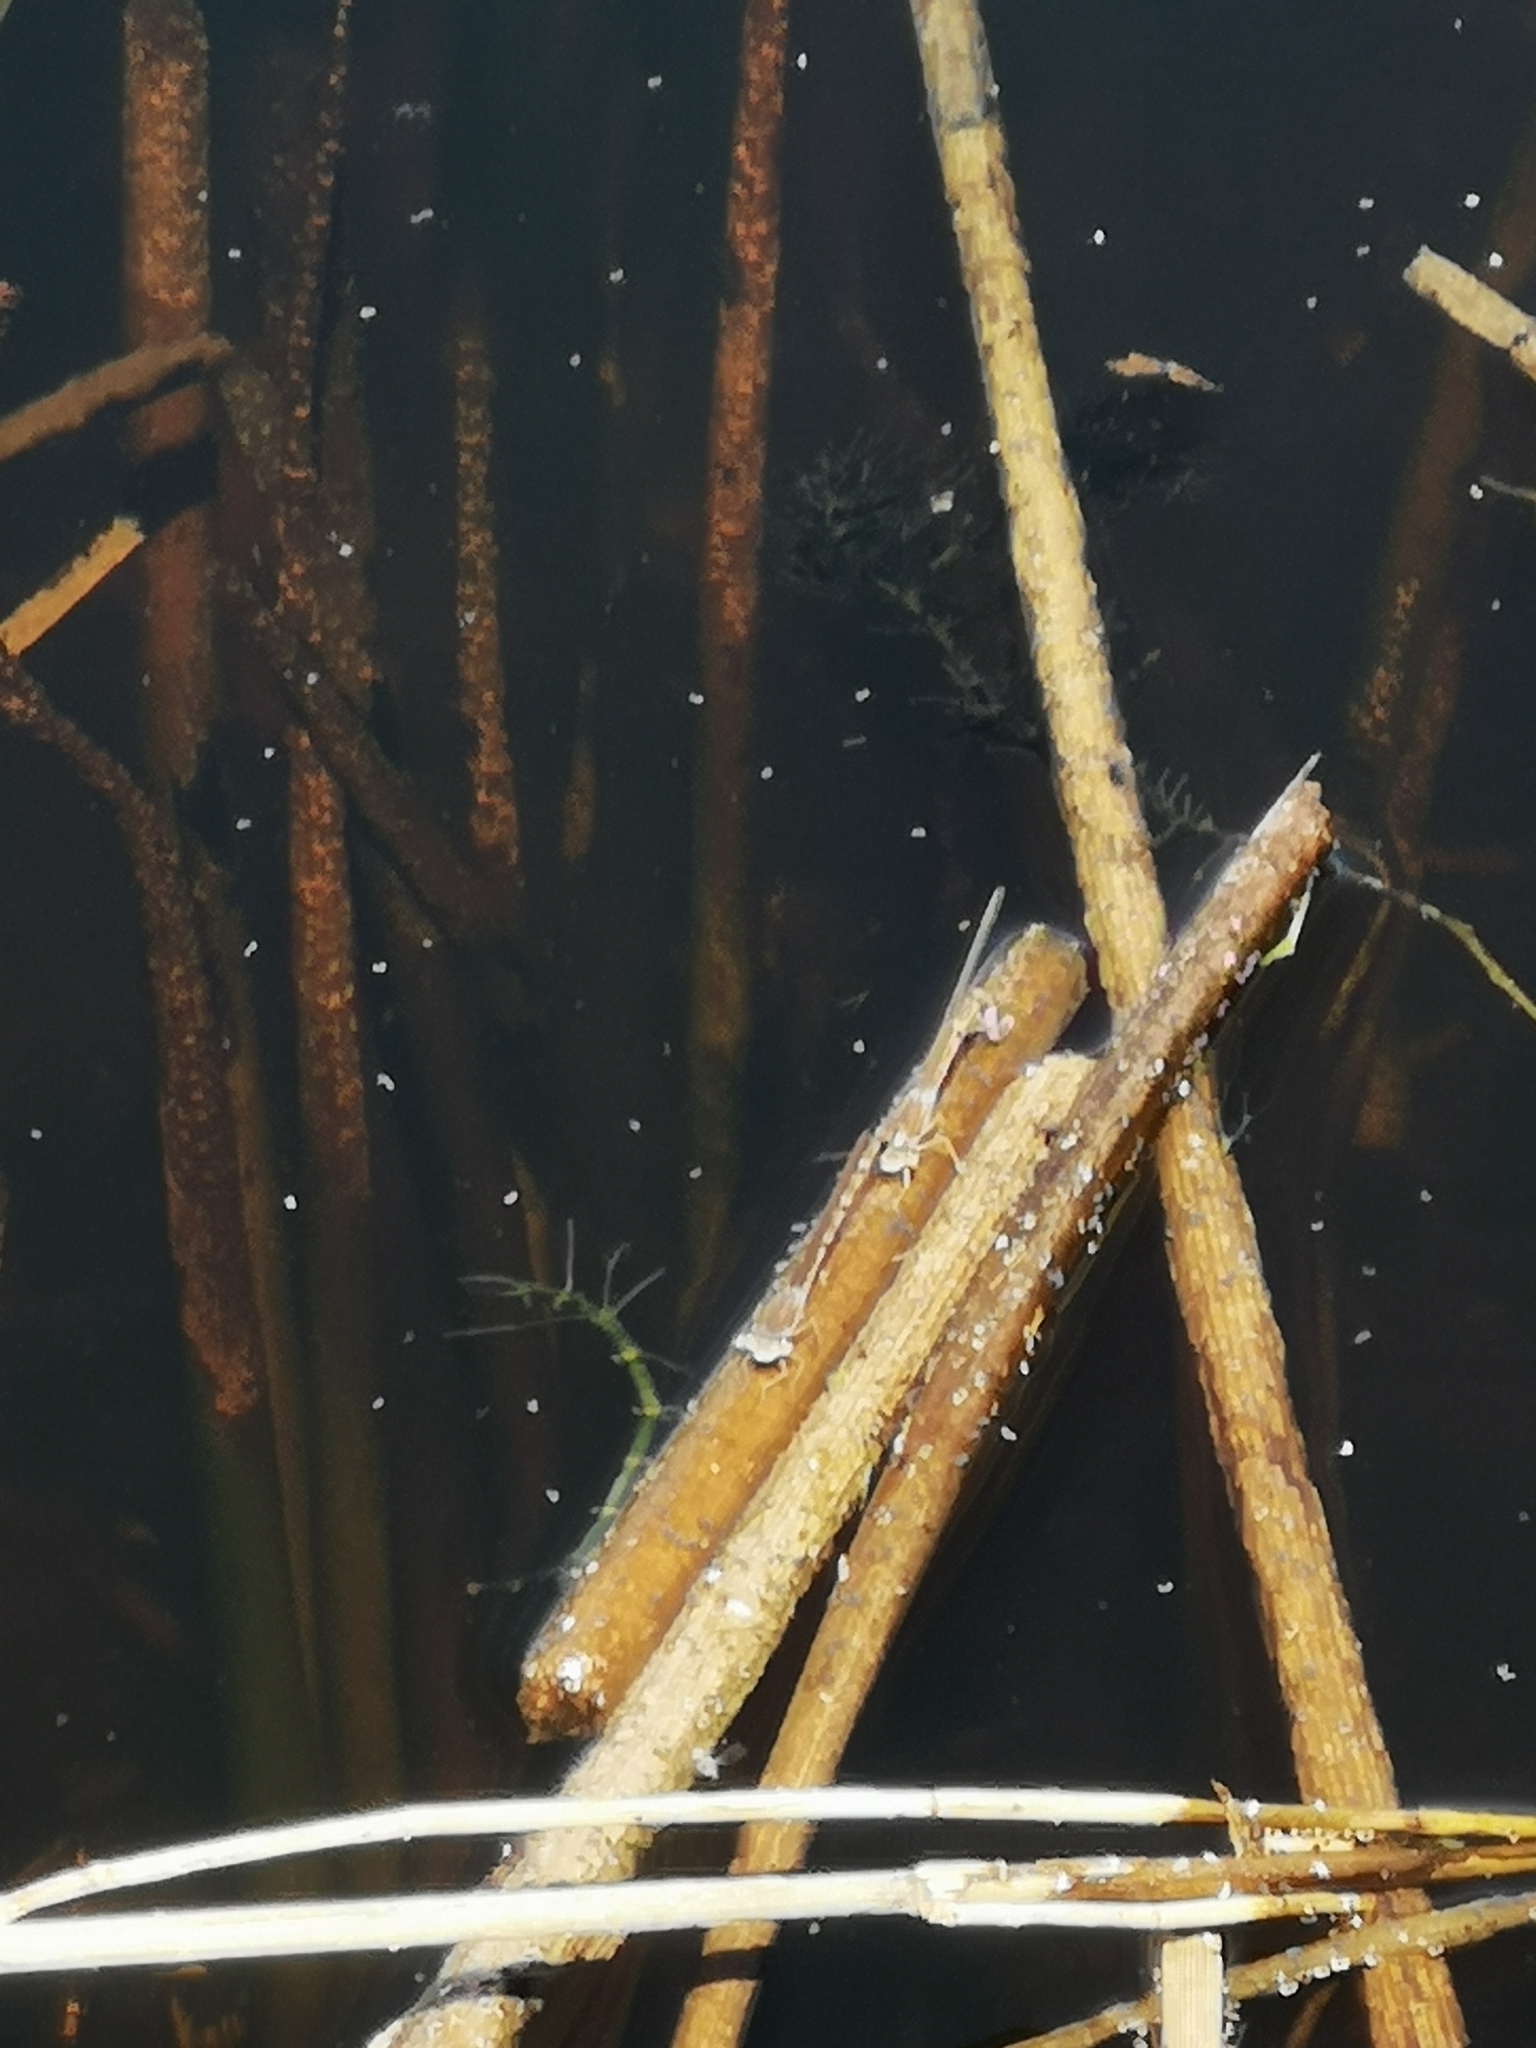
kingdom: Animalia
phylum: Arthropoda
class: Insecta
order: Odonata
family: Lestidae
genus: Sympecma
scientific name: Sympecma fusca
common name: Common winter damsel
